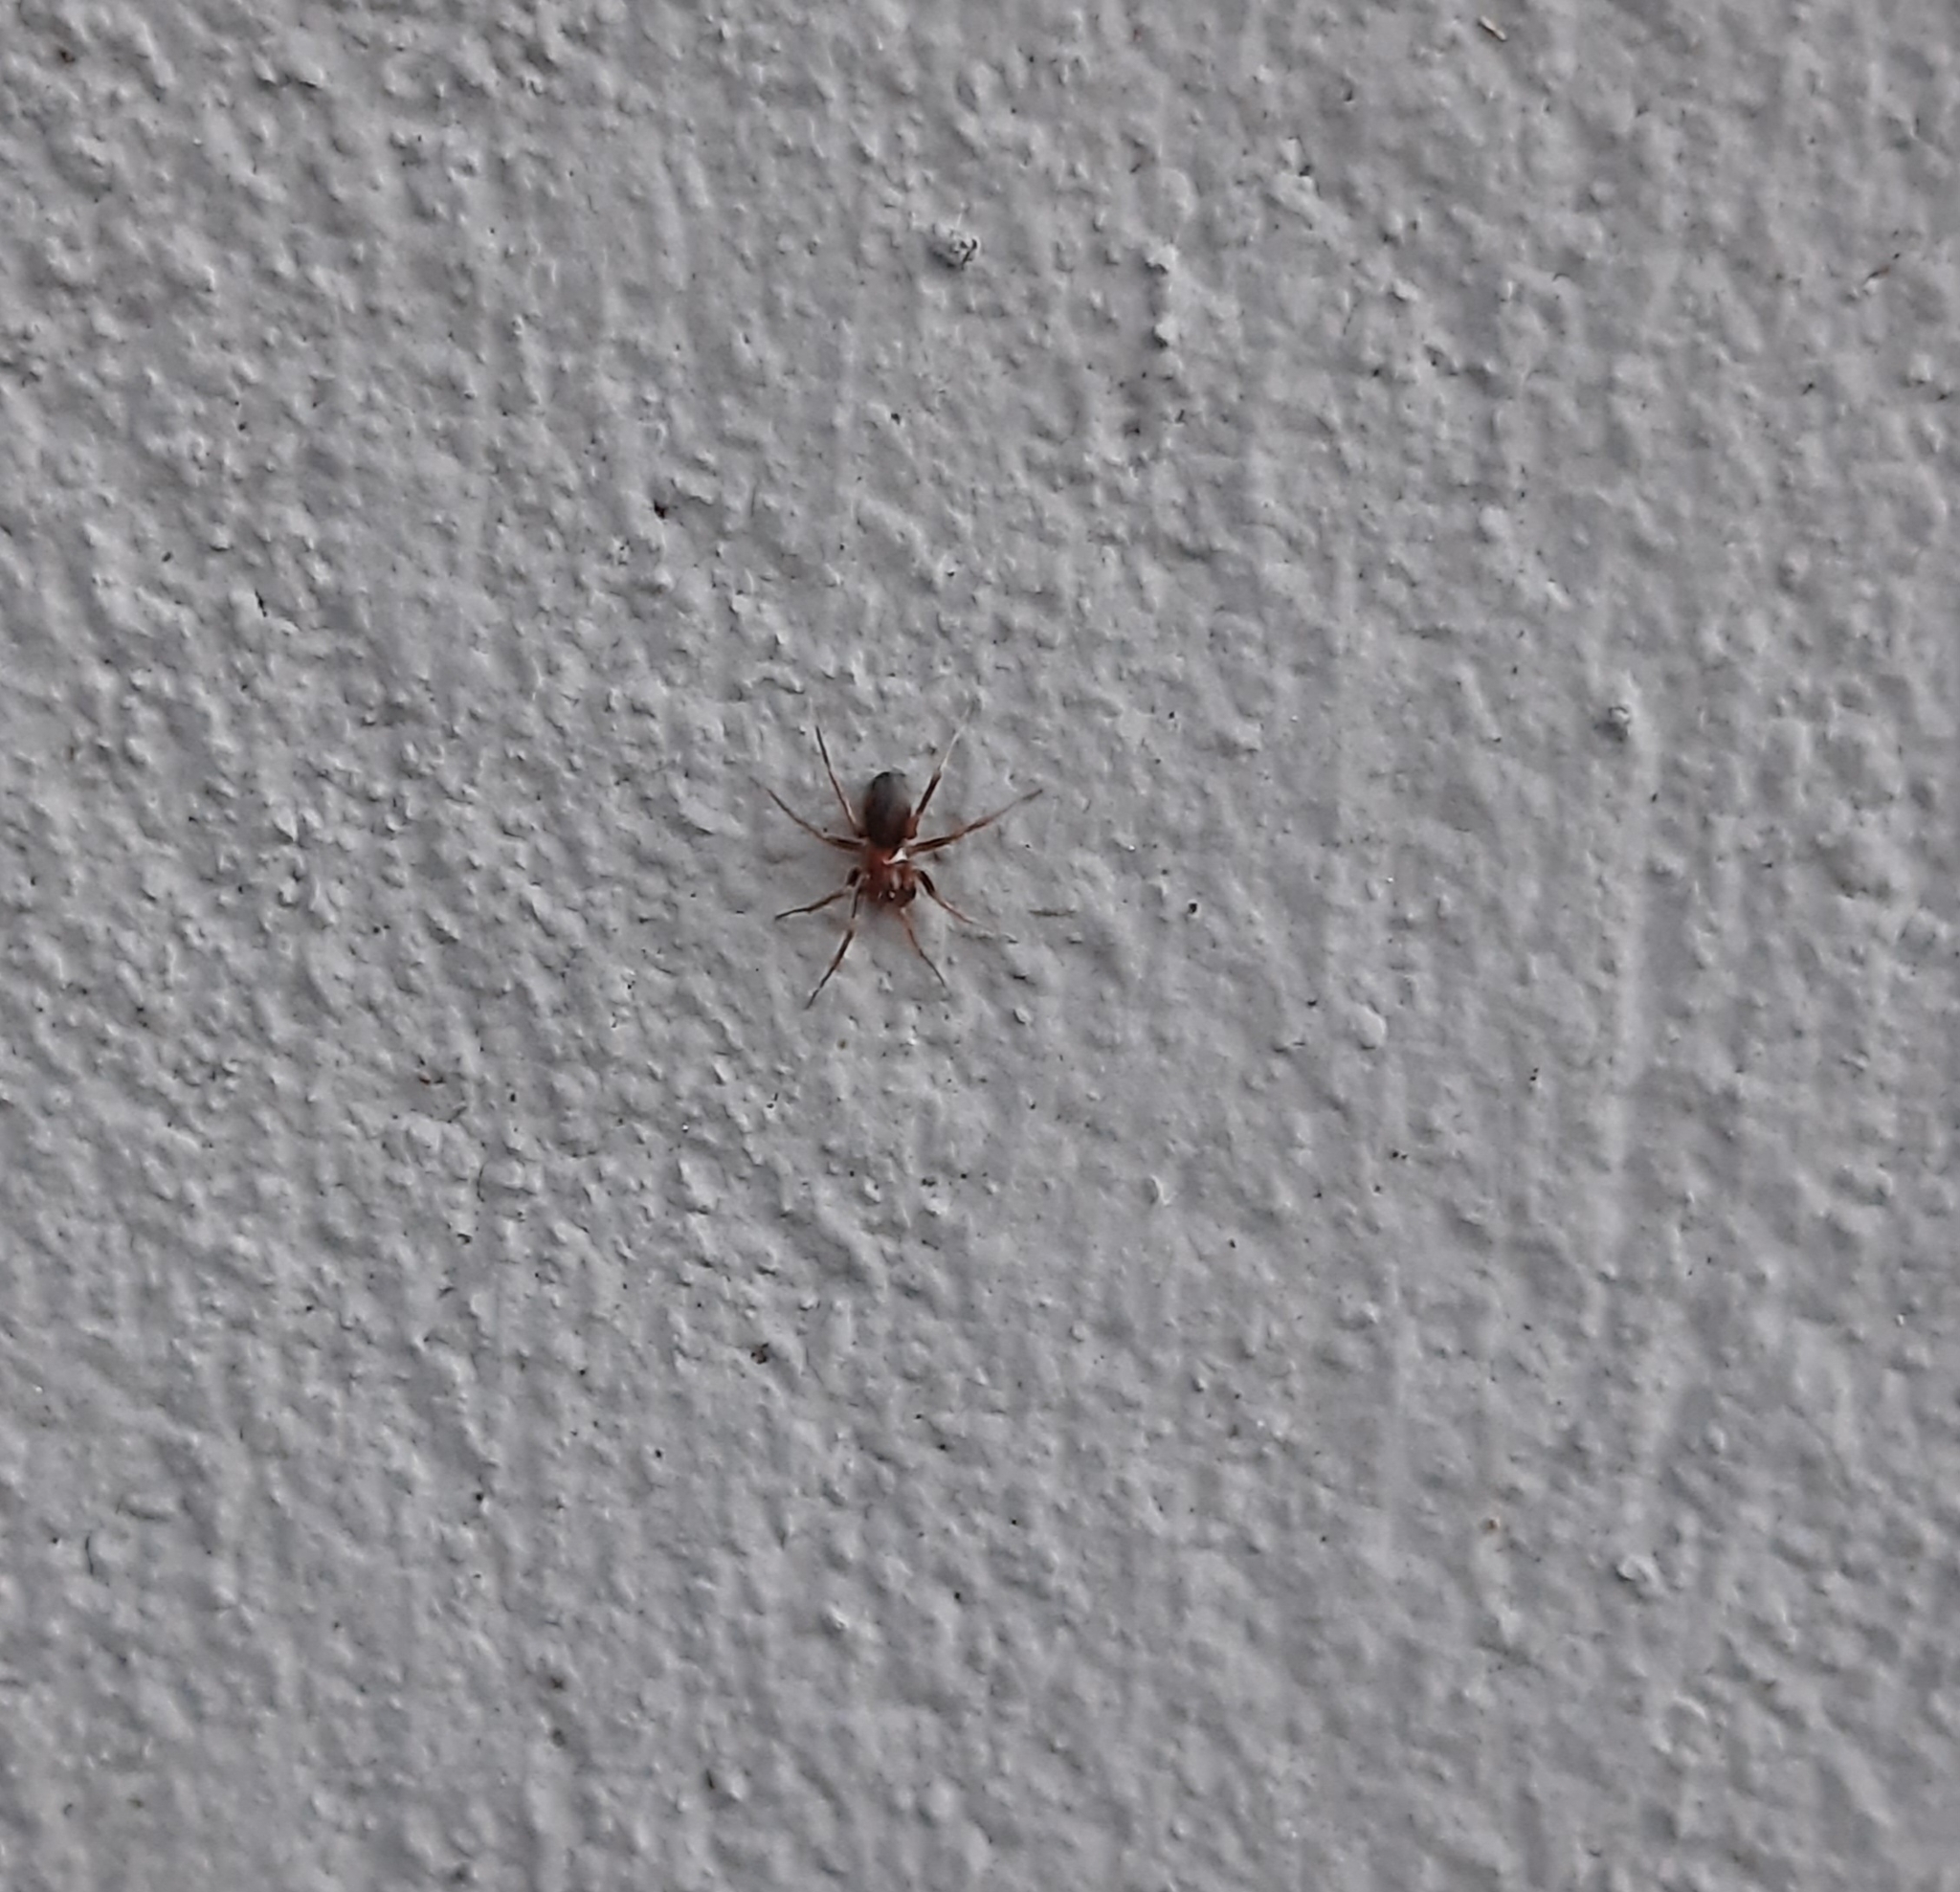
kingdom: Animalia
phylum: Arthropoda
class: Arachnida
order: Araneae
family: Zodariidae
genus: Zodarion
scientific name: Zodarion
